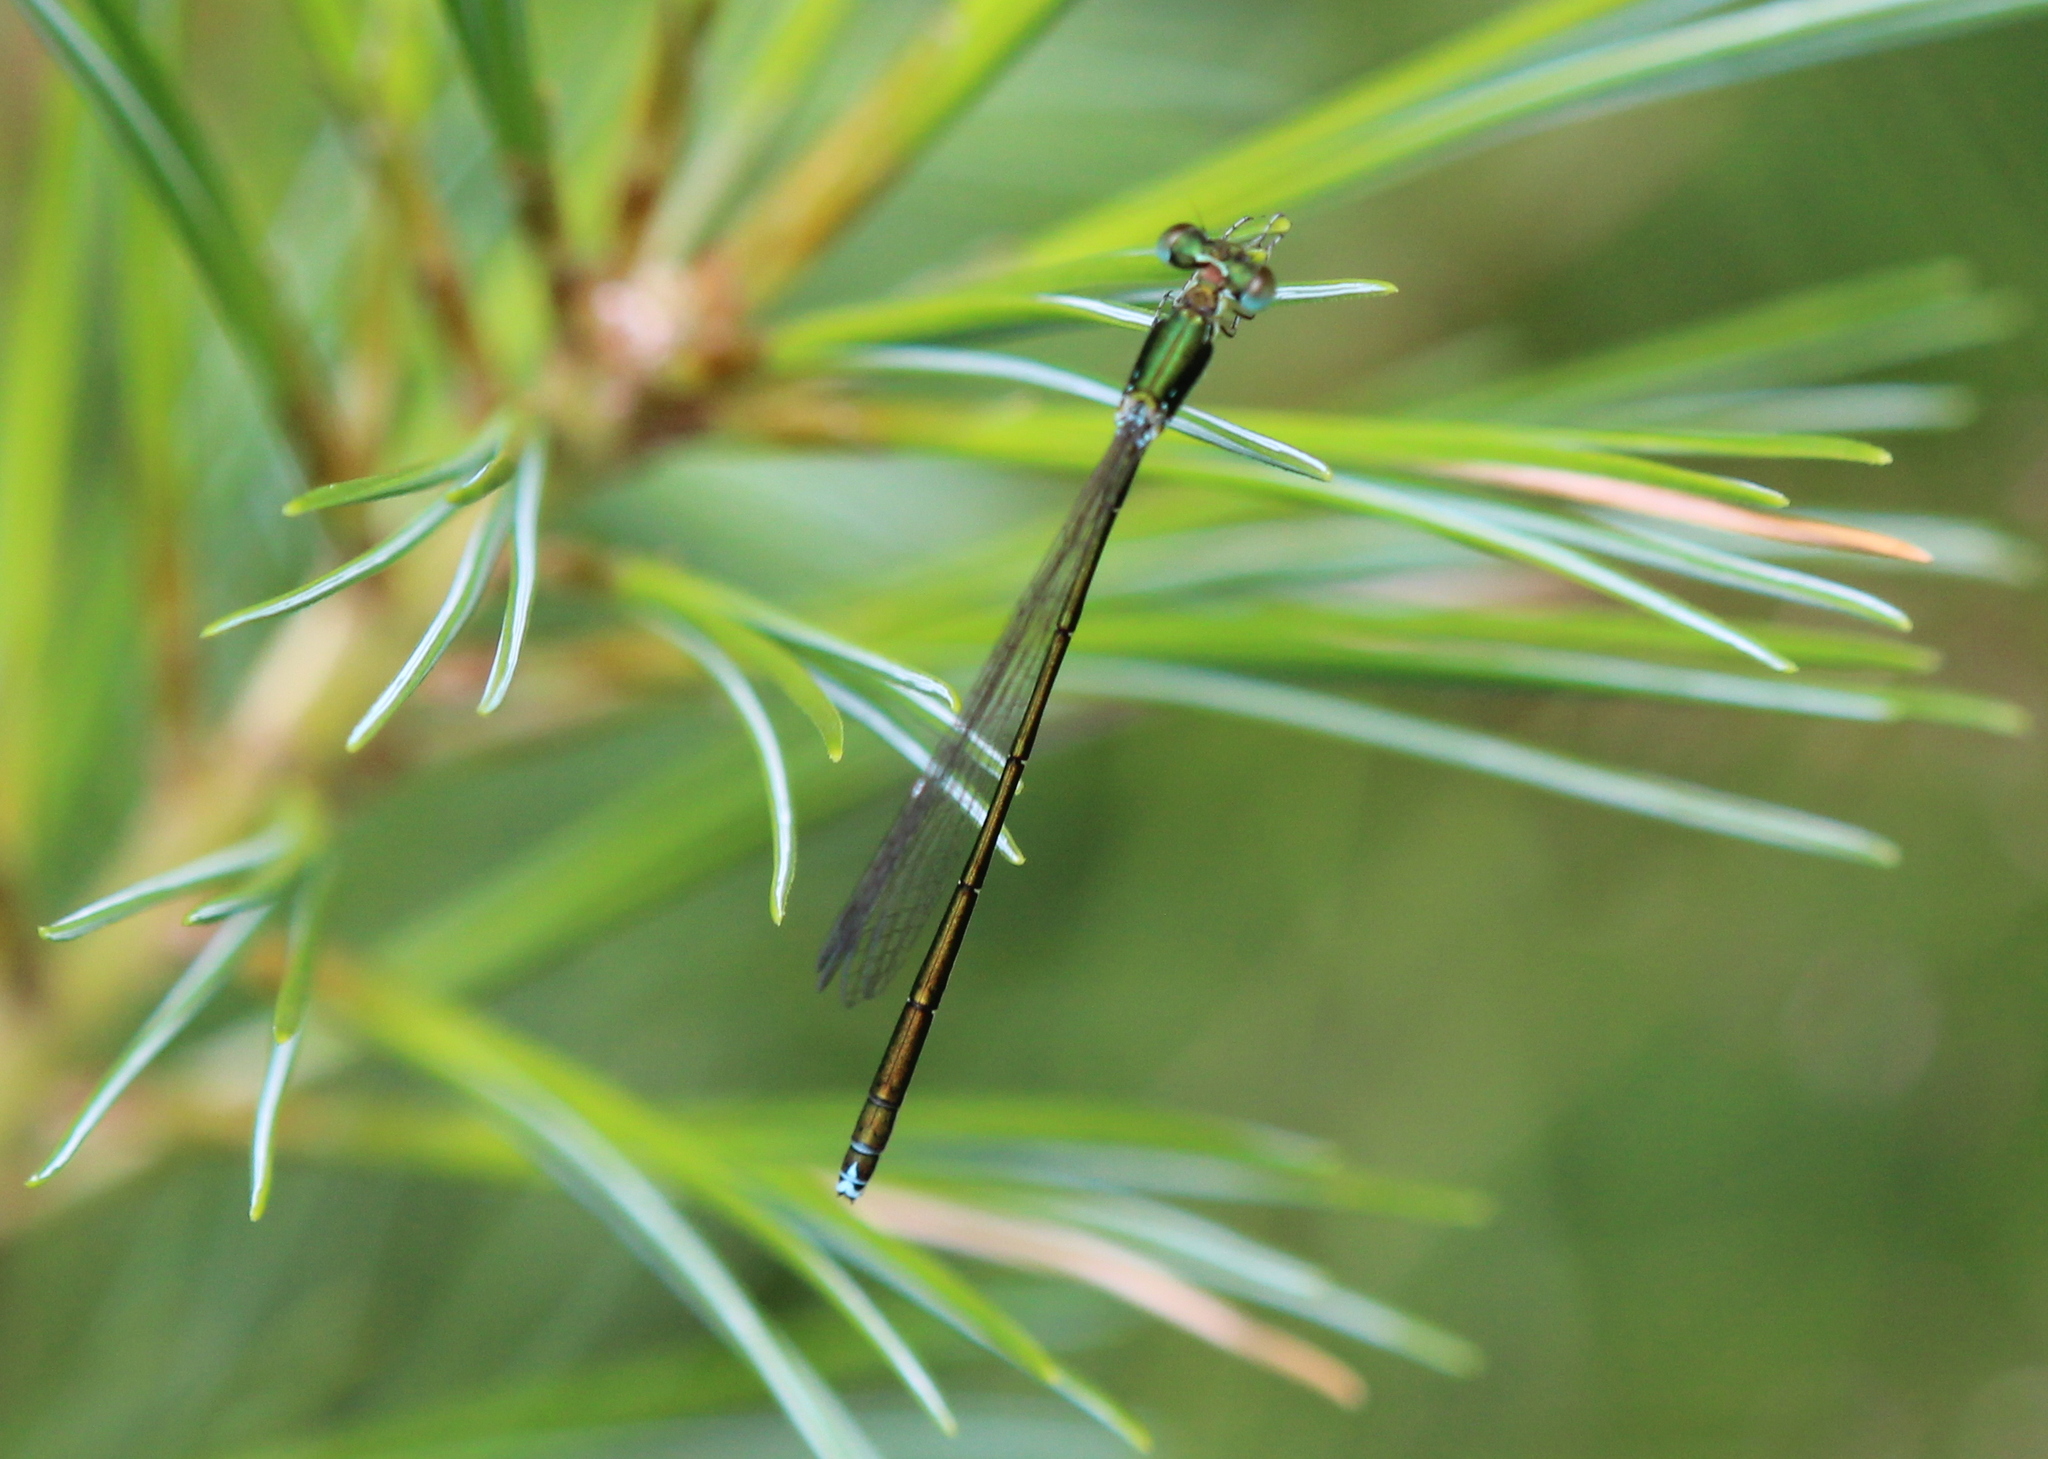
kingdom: Animalia
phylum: Arthropoda
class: Insecta
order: Odonata
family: Coenagrionidae
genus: Nehalennia
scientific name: Nehalennia irene
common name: Sedge sprite
